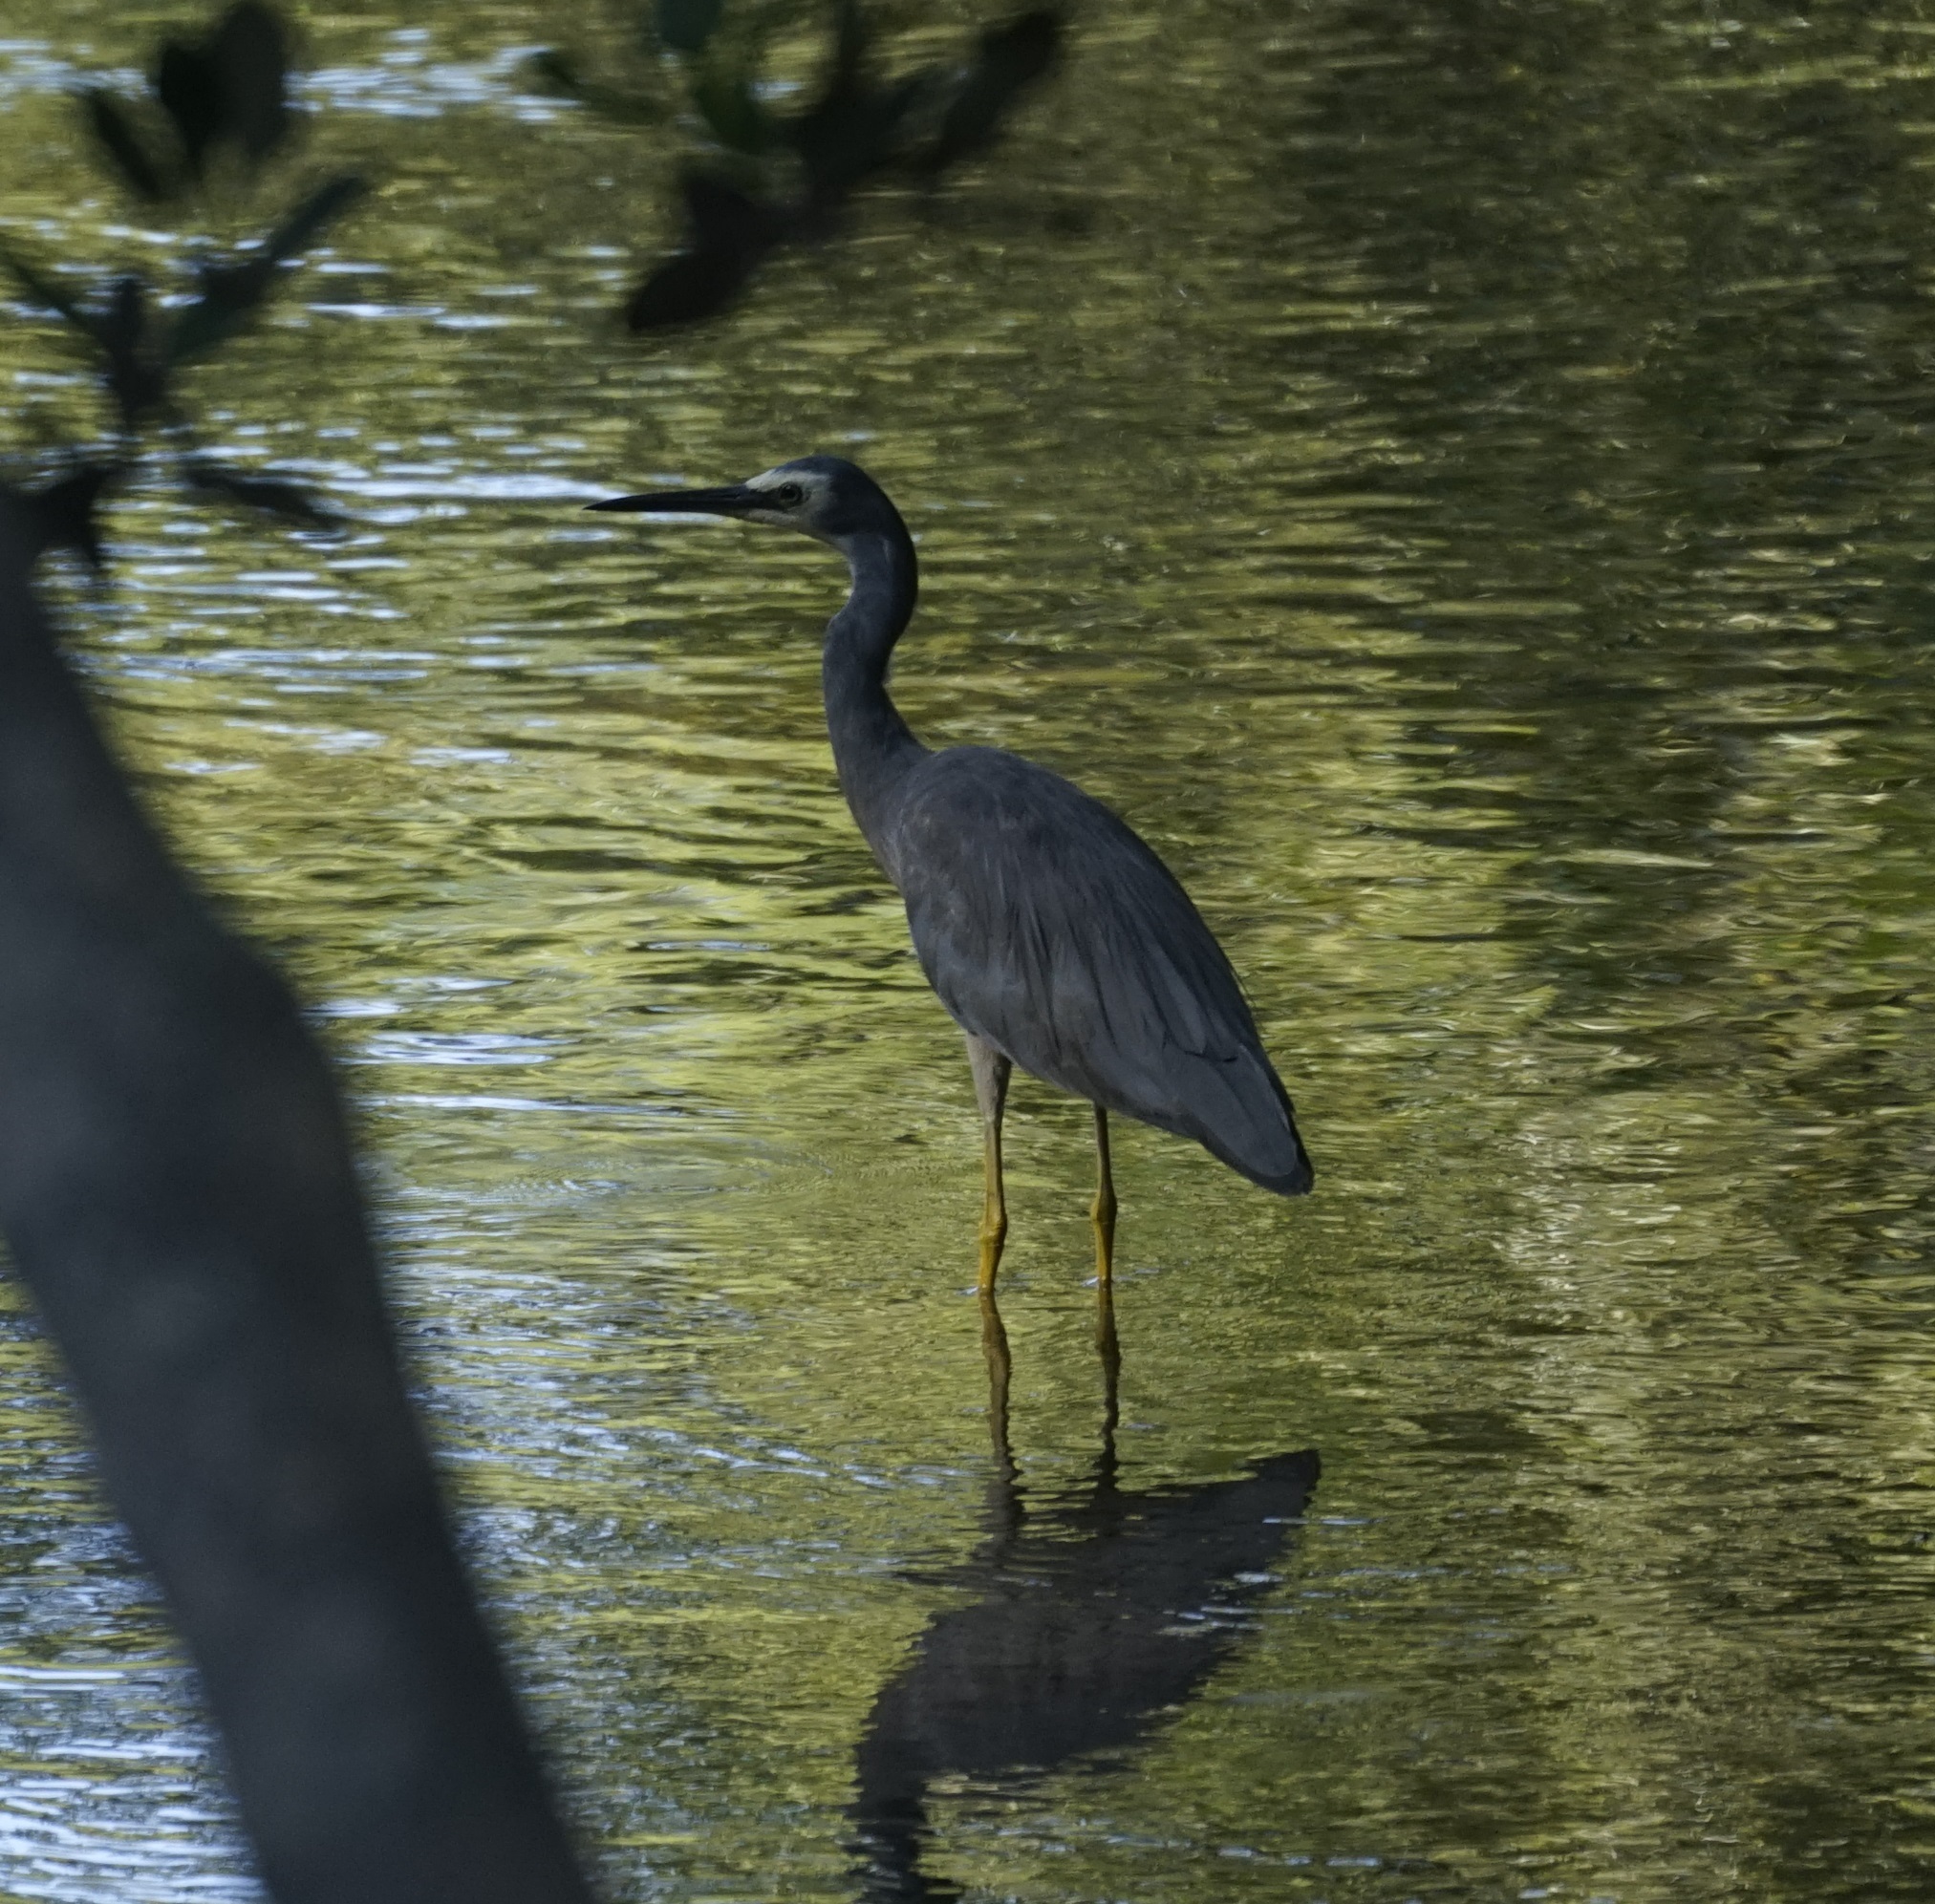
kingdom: Animalia
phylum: Chordata
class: Aves
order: Pelecaniformes
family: Ardeidae
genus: Egretta
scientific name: Egretta novaehollandiae
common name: White-faced heron
